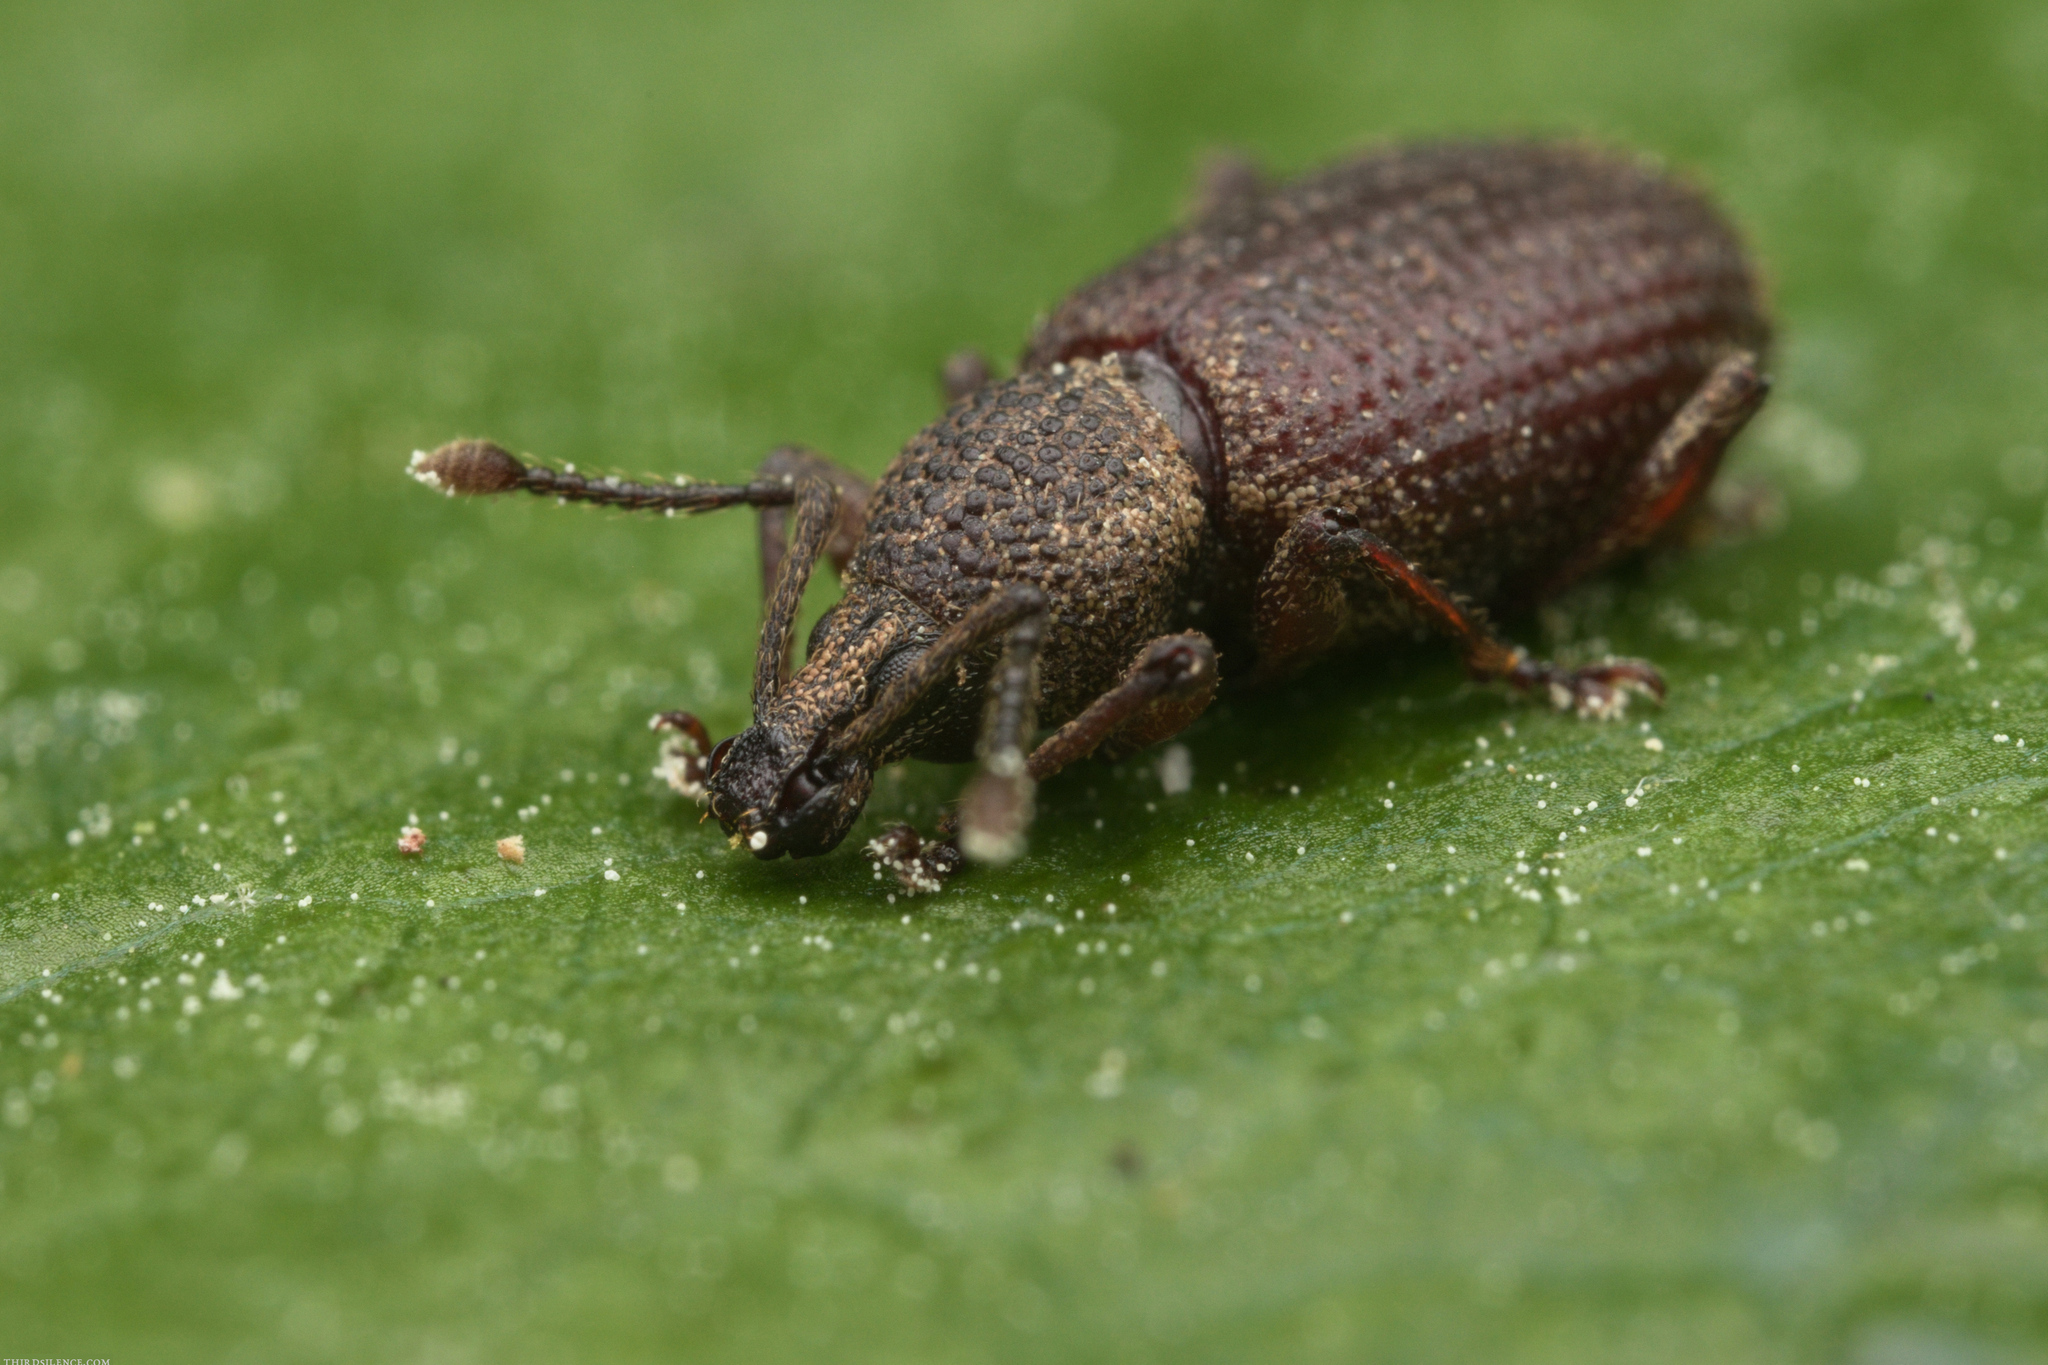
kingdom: Animalia
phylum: Arthropoda
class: Insecta
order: Coleoptera
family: Curculionidae
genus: Otiorhynchus
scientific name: Otiorhynchus rugosostriatus
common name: Weevil
